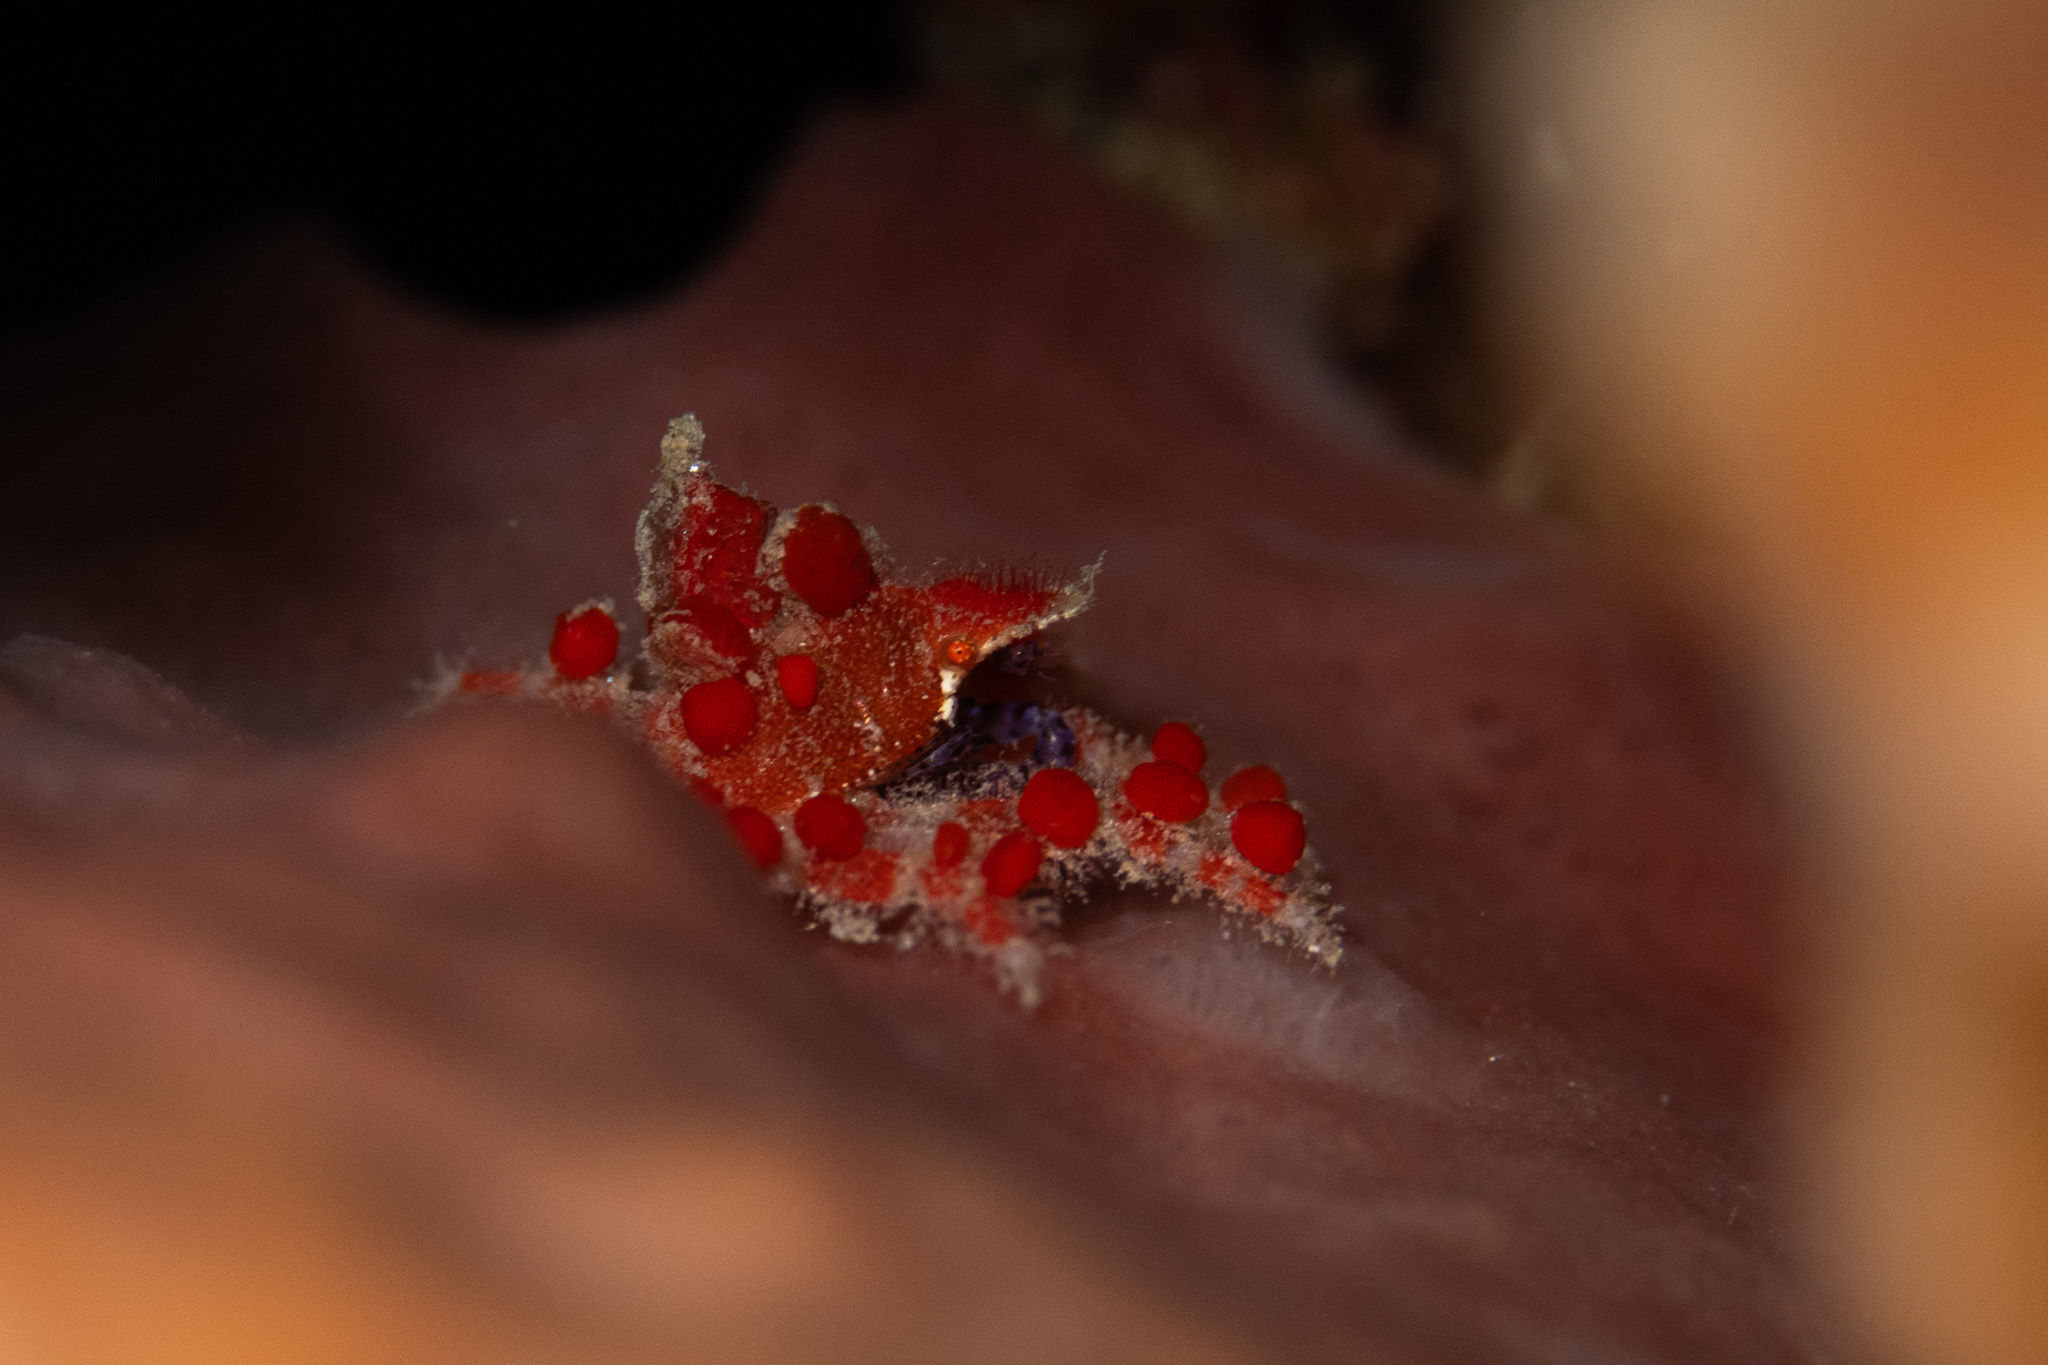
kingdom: Animalia
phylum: Arthropoda
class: Malacostraca
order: Decapoda
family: Epialtidae
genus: Pelia
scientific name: Pelia mutica
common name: Cryptic teardrop crab
